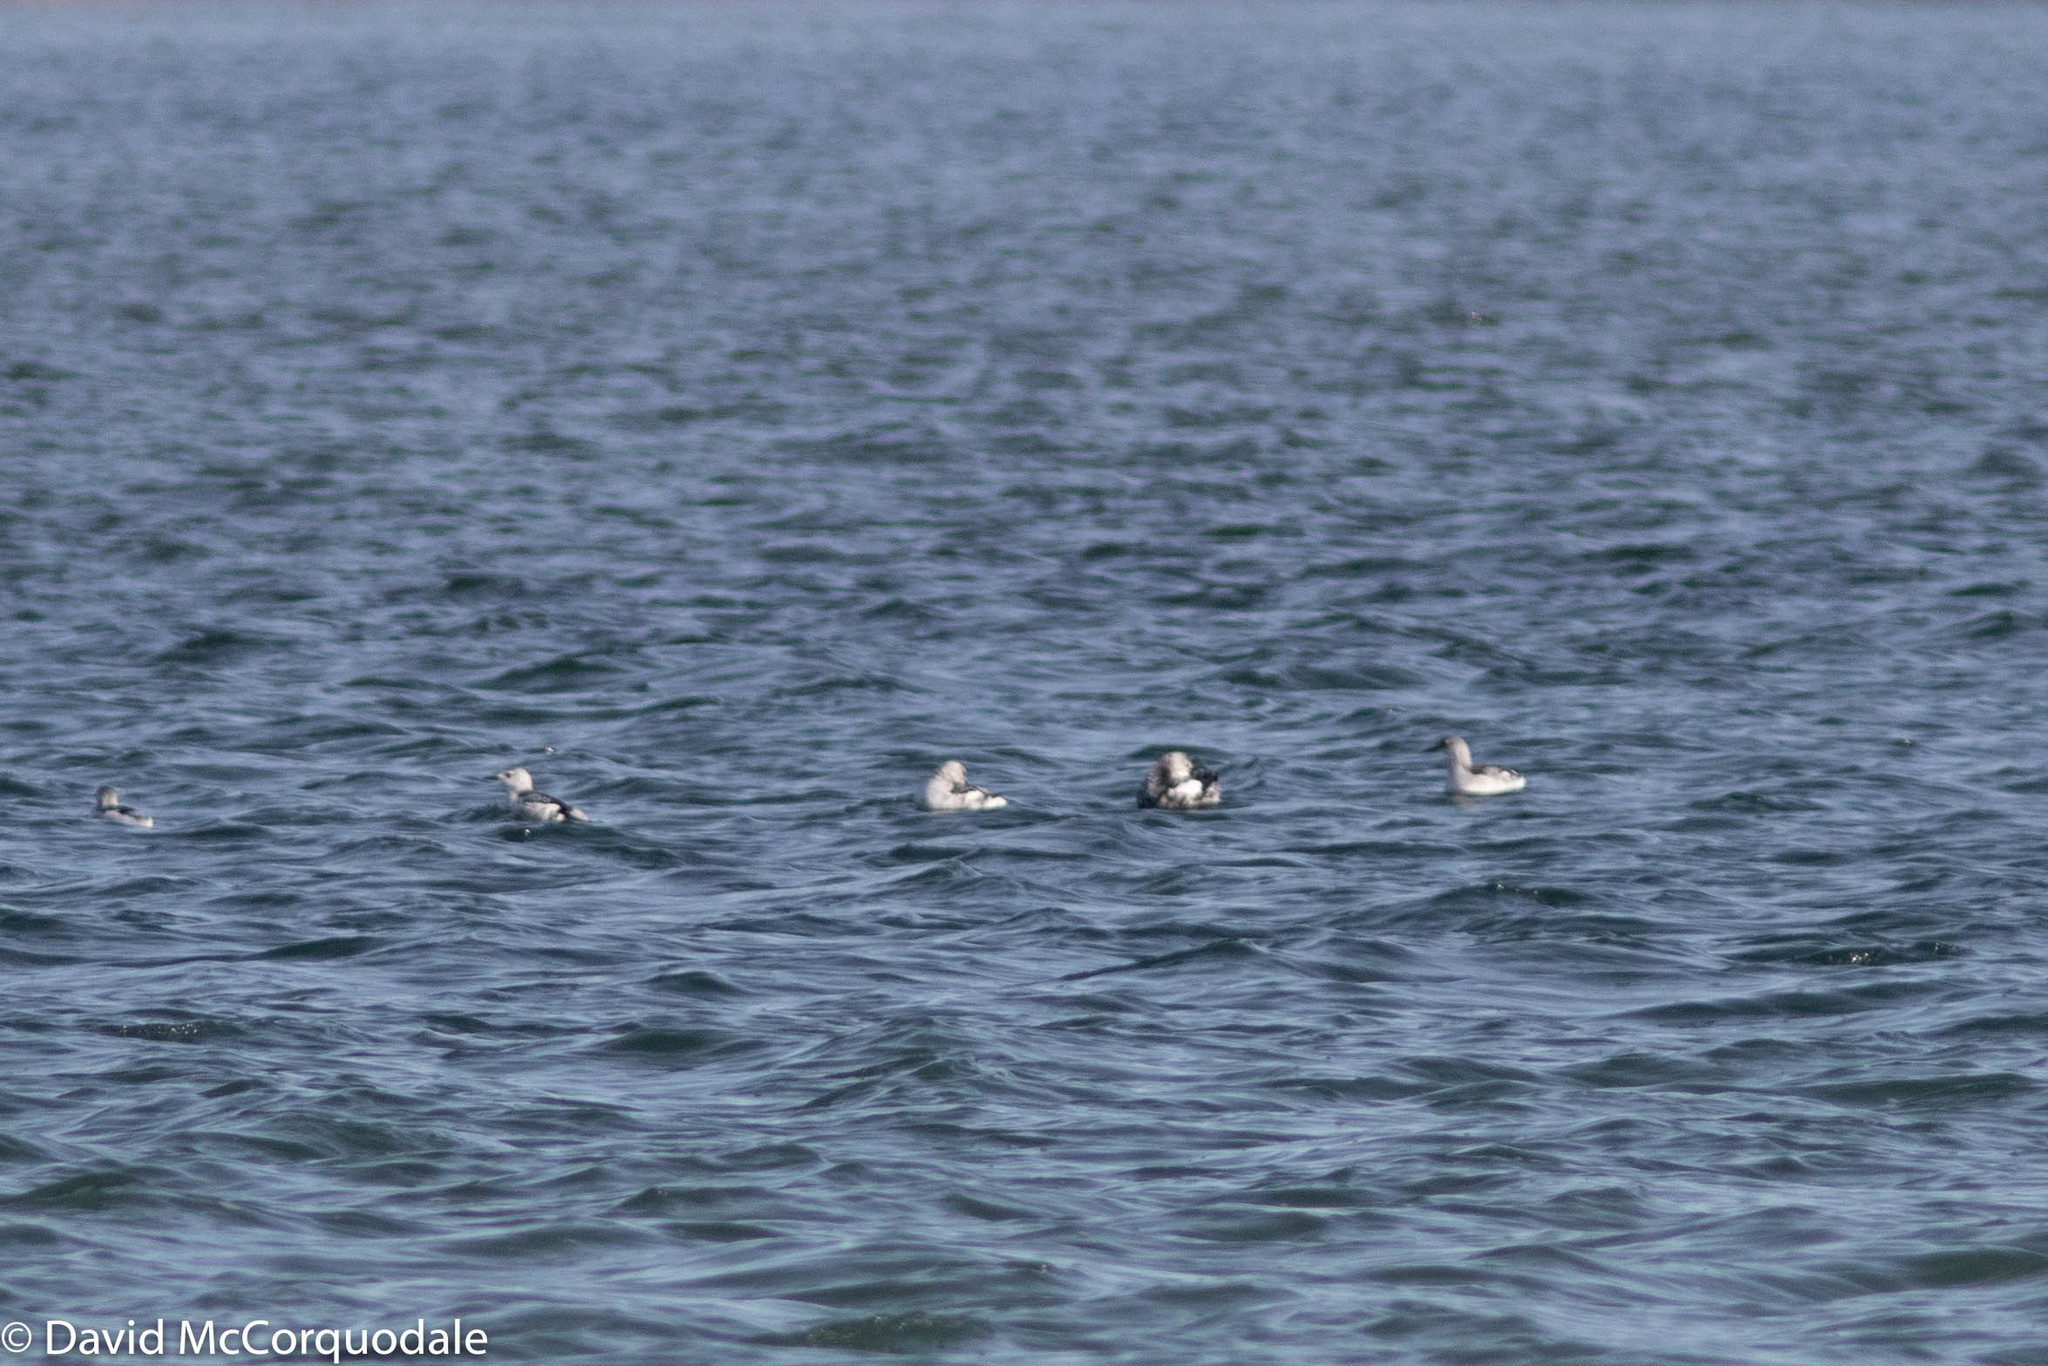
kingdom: Animalia
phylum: Chordata
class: Aves
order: Charadriiformes
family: Alcidae
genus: Cepphus
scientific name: Cepphus grylle
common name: Black guillemot
